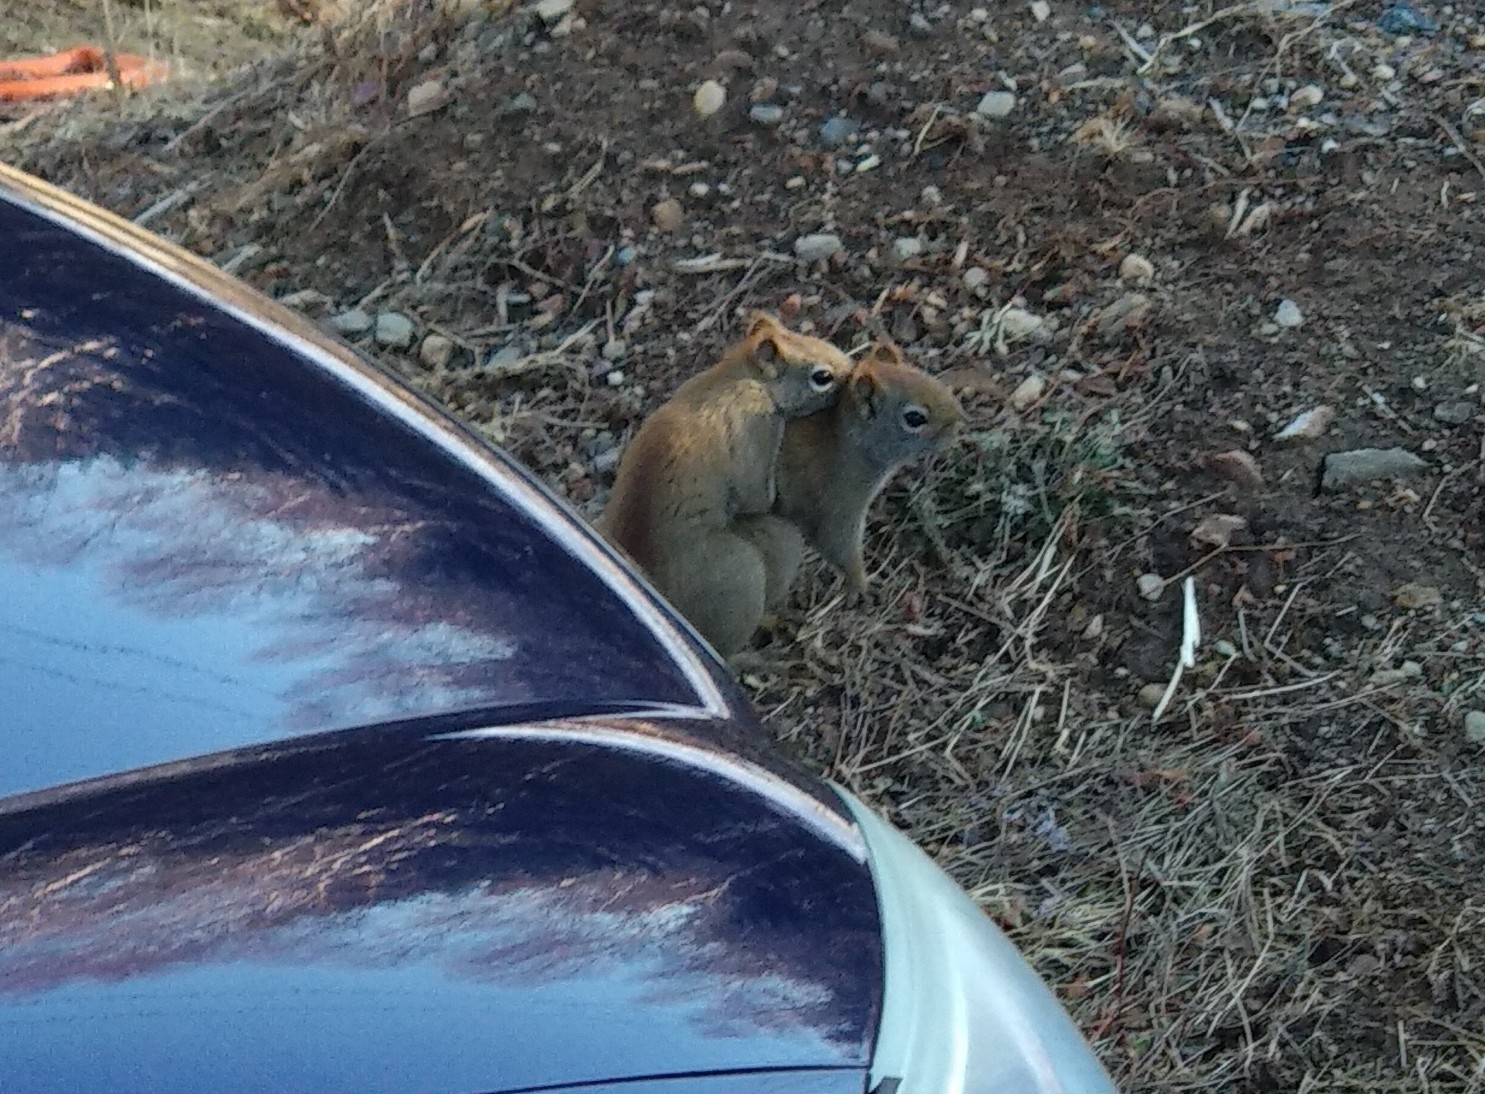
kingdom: Animalia
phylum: Chordata
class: Mammalia
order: Rodentia
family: Sciuridae
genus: Tamiasciurus
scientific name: Tamiasciurus hudsonicus
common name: Red squirrel
